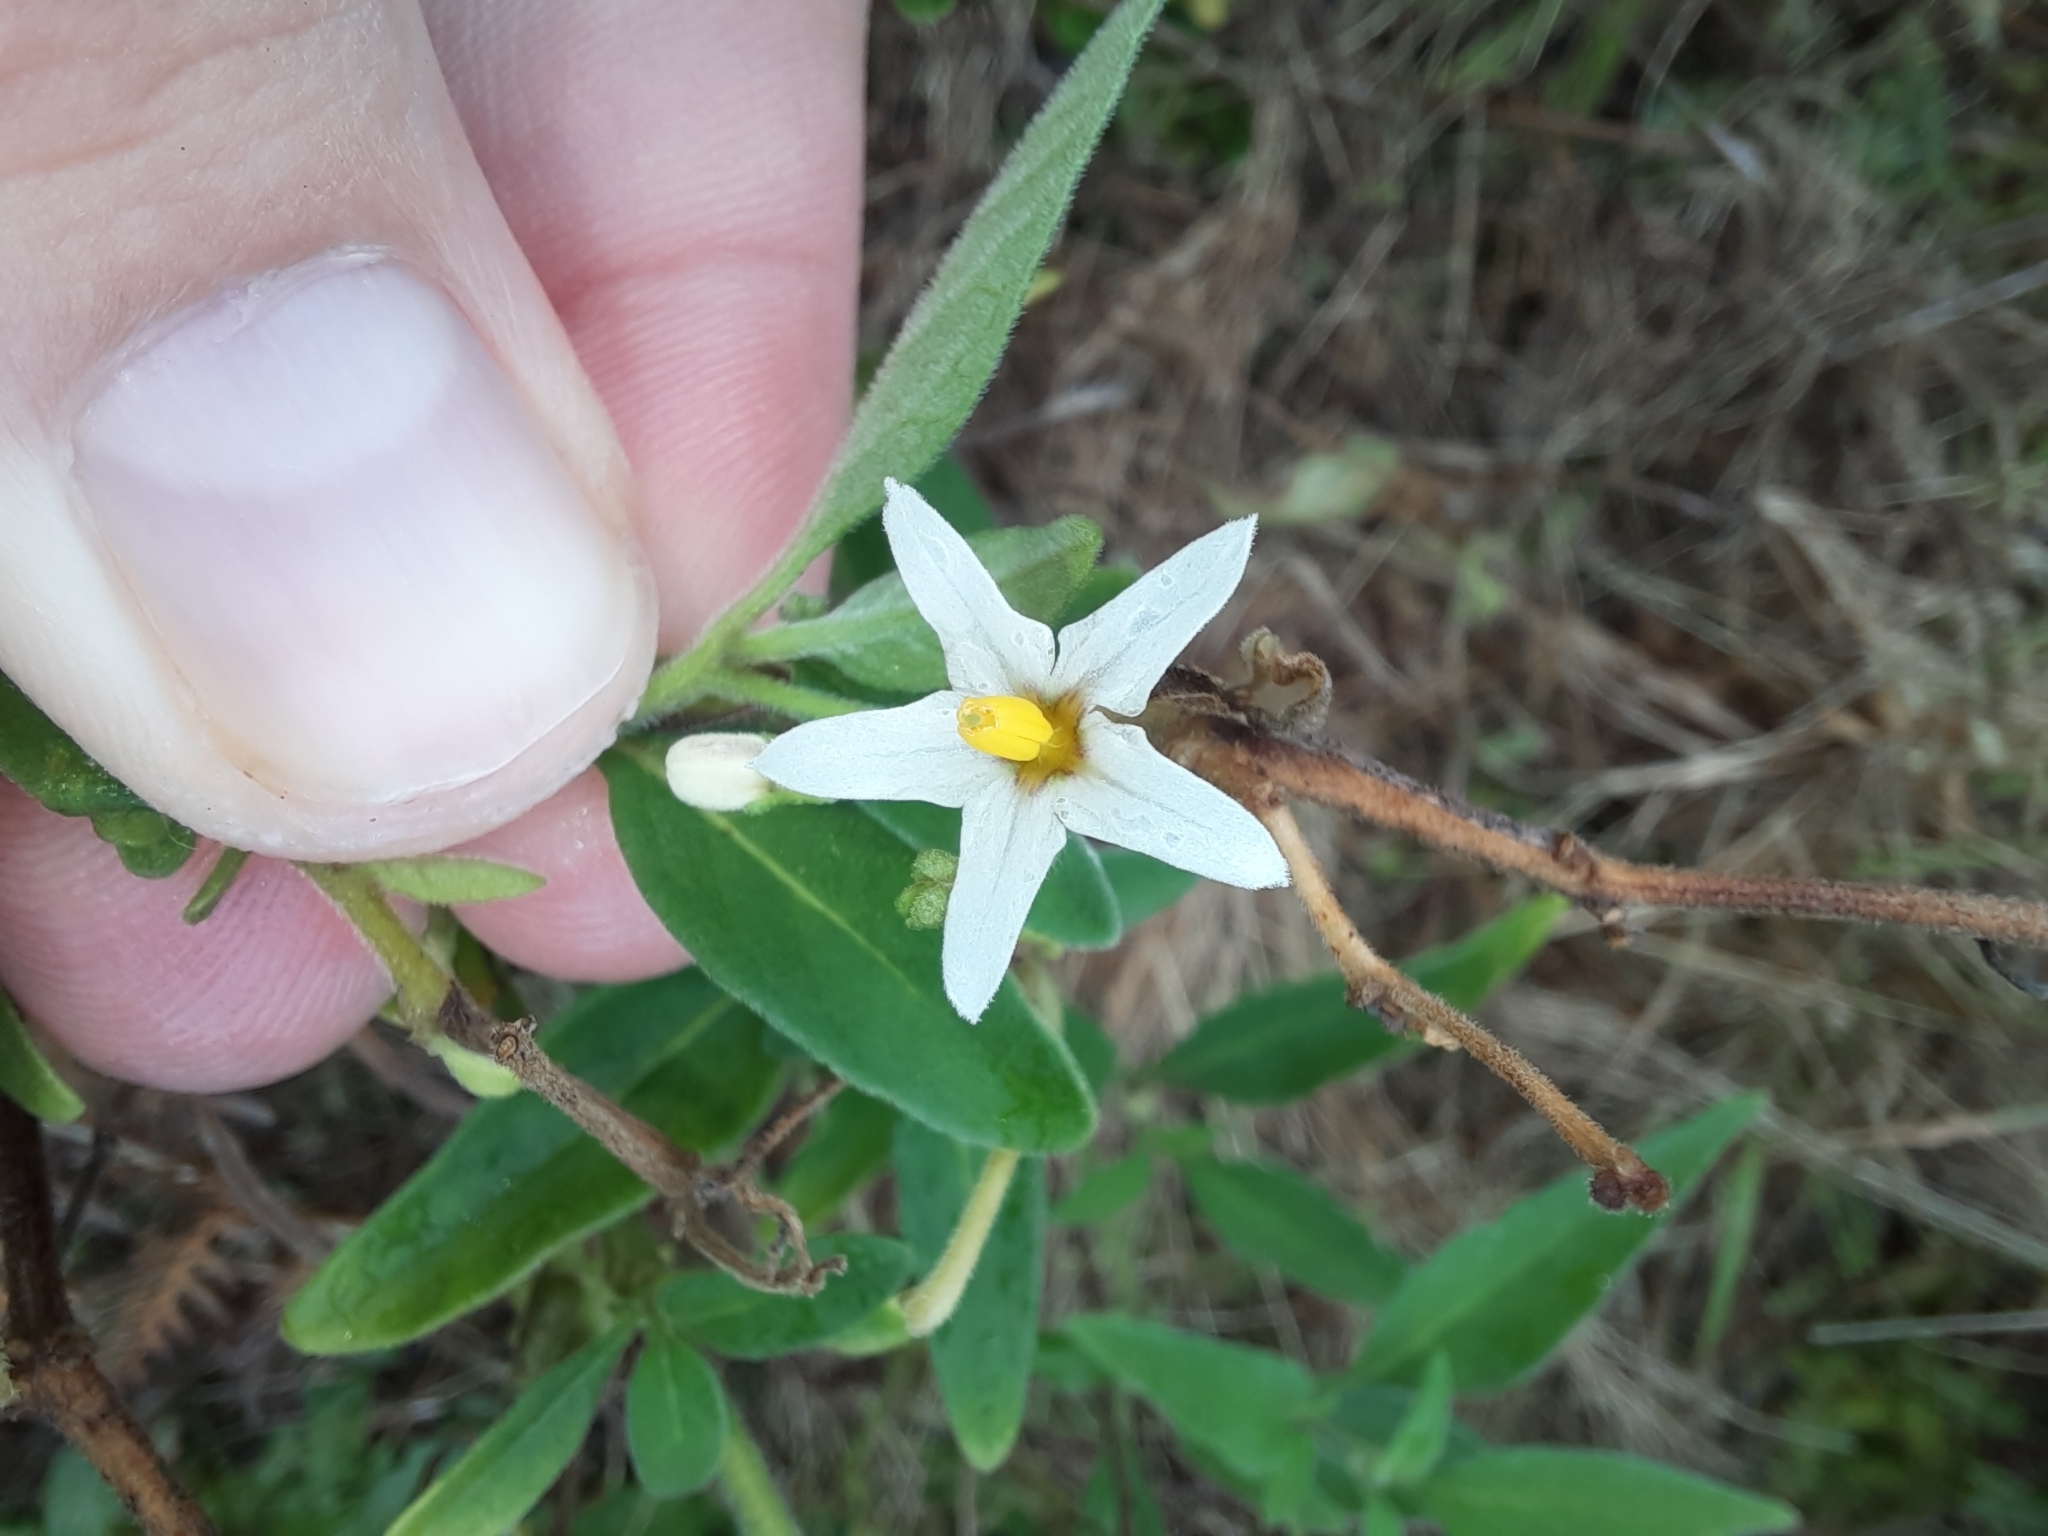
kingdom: Plantae
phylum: Tracheophyta
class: Magnoliopsida
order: Solanales
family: Solanaceae
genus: Solanum
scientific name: Solanum chenopodioides
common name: Tall nightshade
